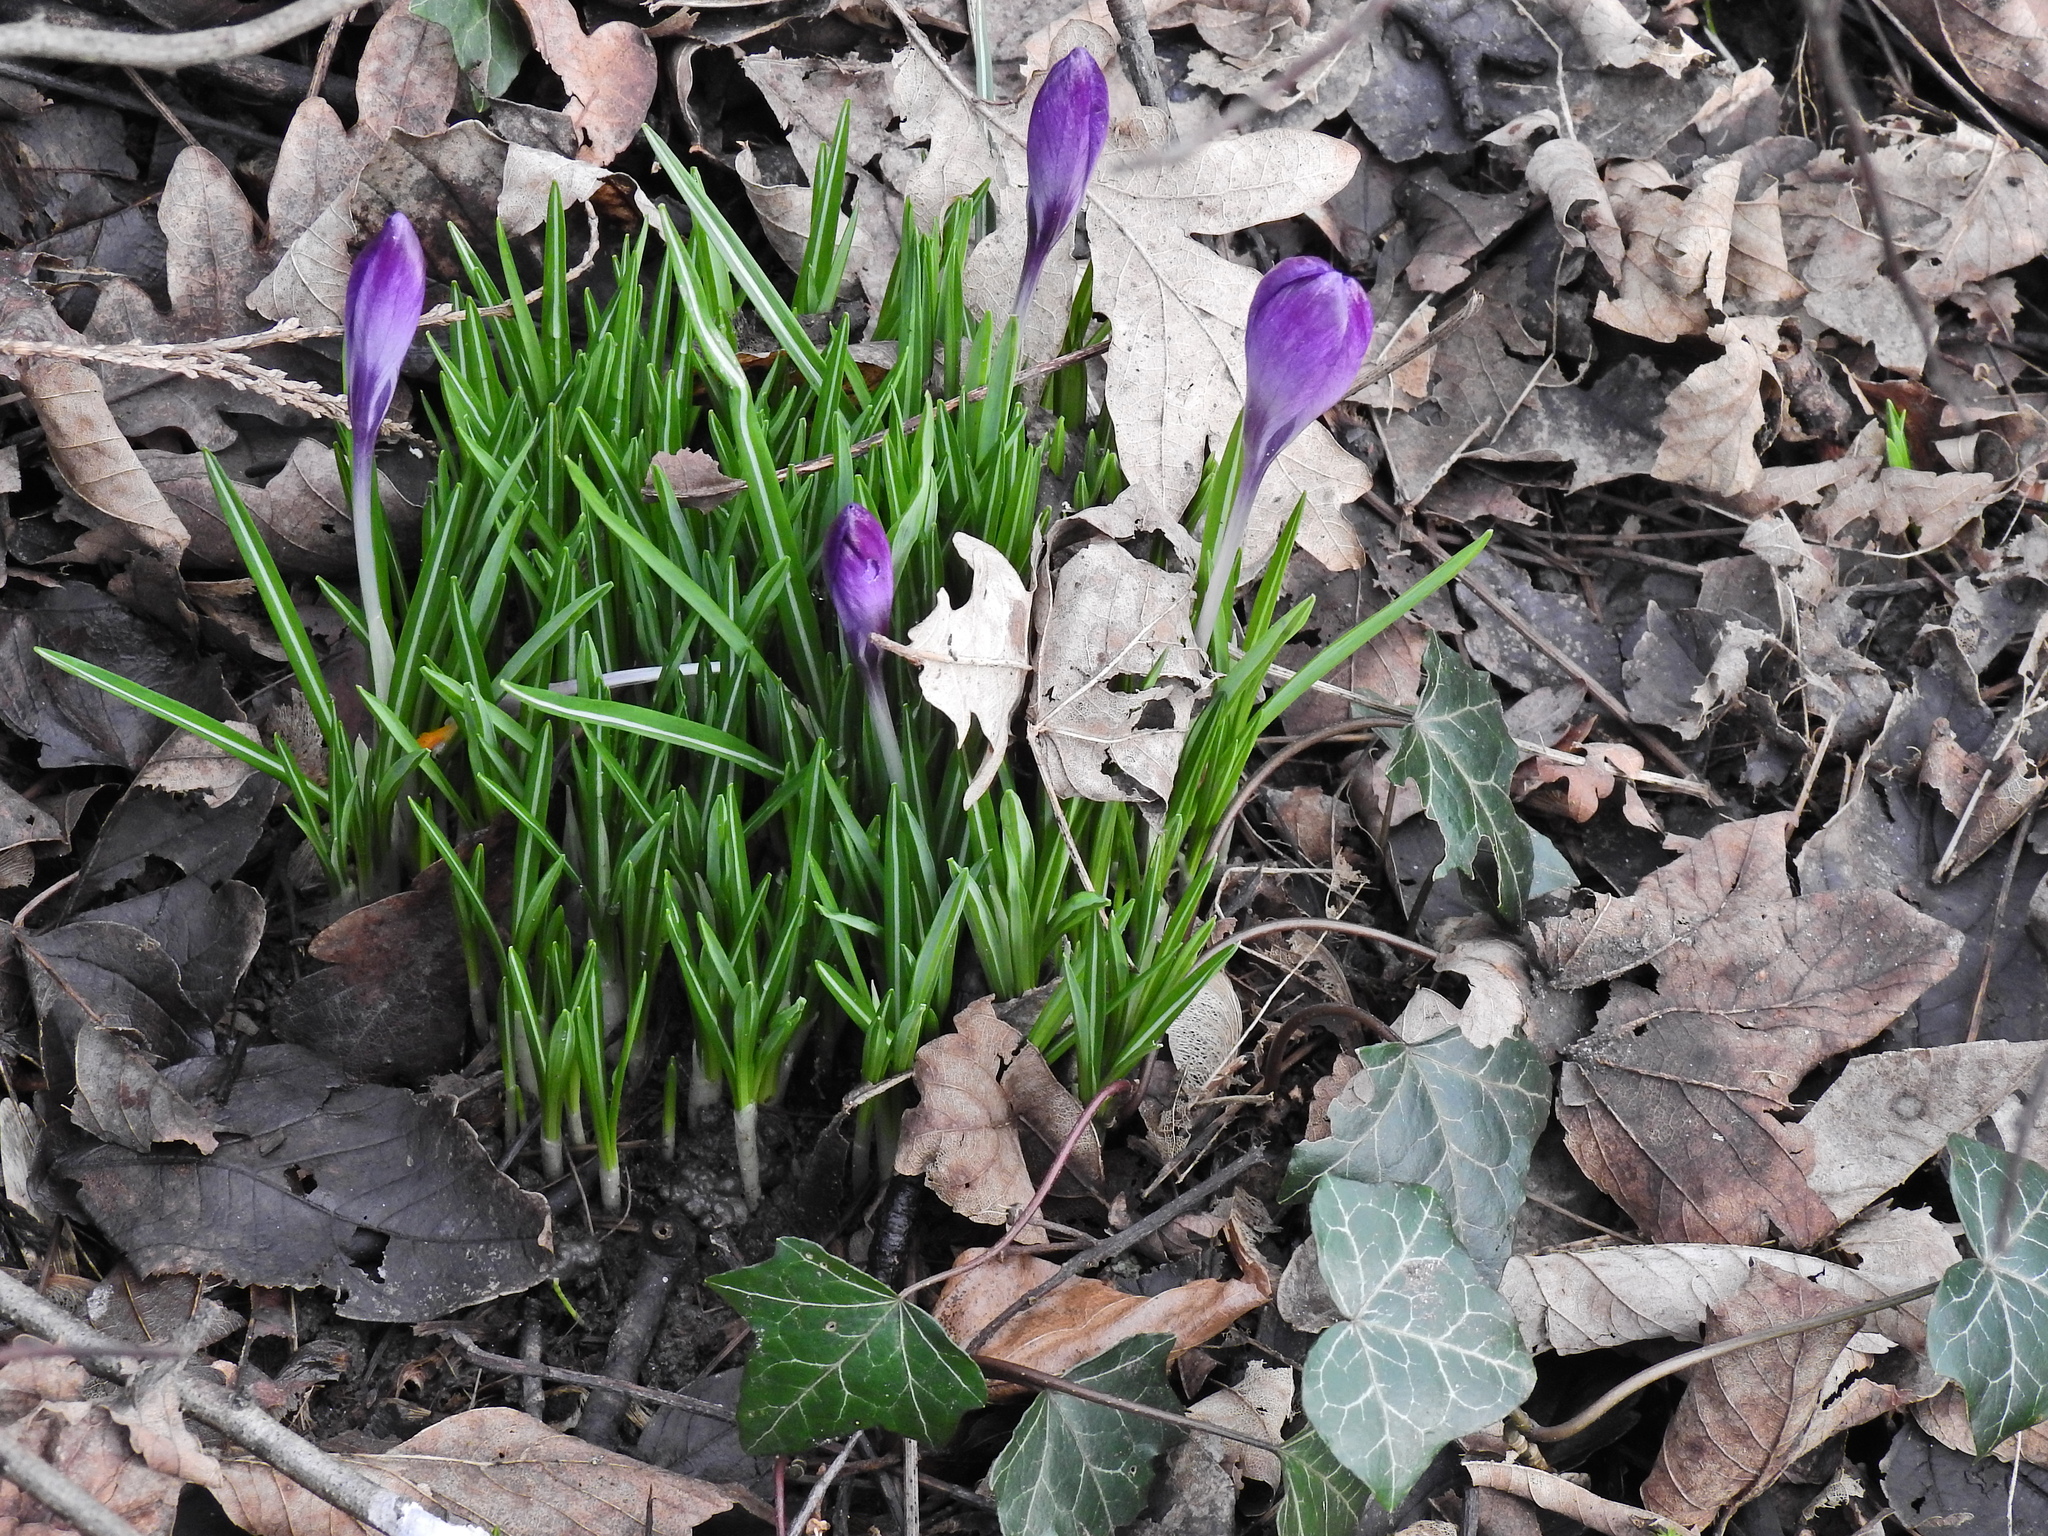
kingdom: Plantae
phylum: Tracheophyta
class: Liliopsida
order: Asparagales
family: Iridaceae
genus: Crocus
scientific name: Crocus
